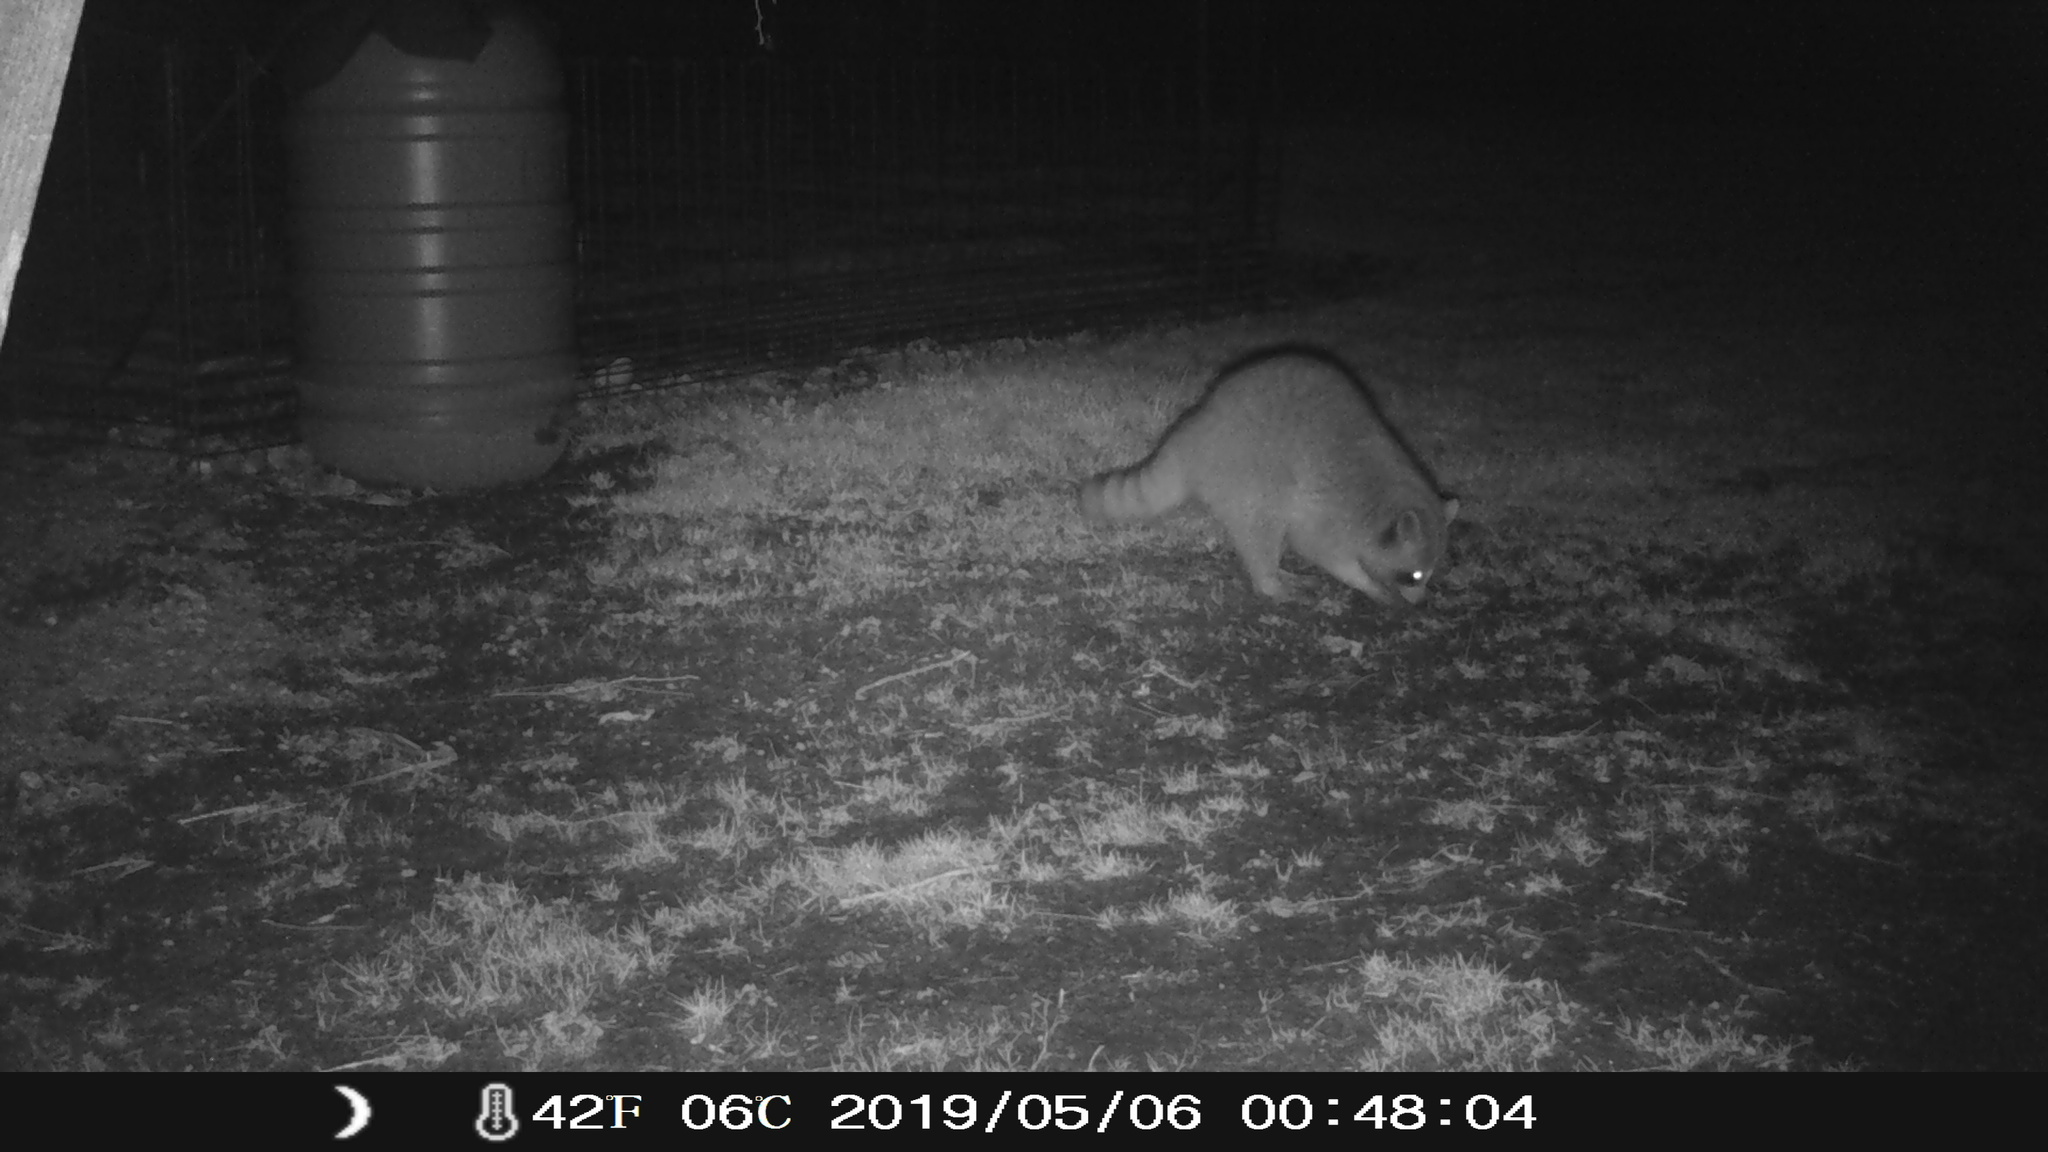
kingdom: Animalia
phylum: Chordata
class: Mammalia
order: Carnivora
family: Procyonidae
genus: Procyon
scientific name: Procyon lotor
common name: Raccoon
